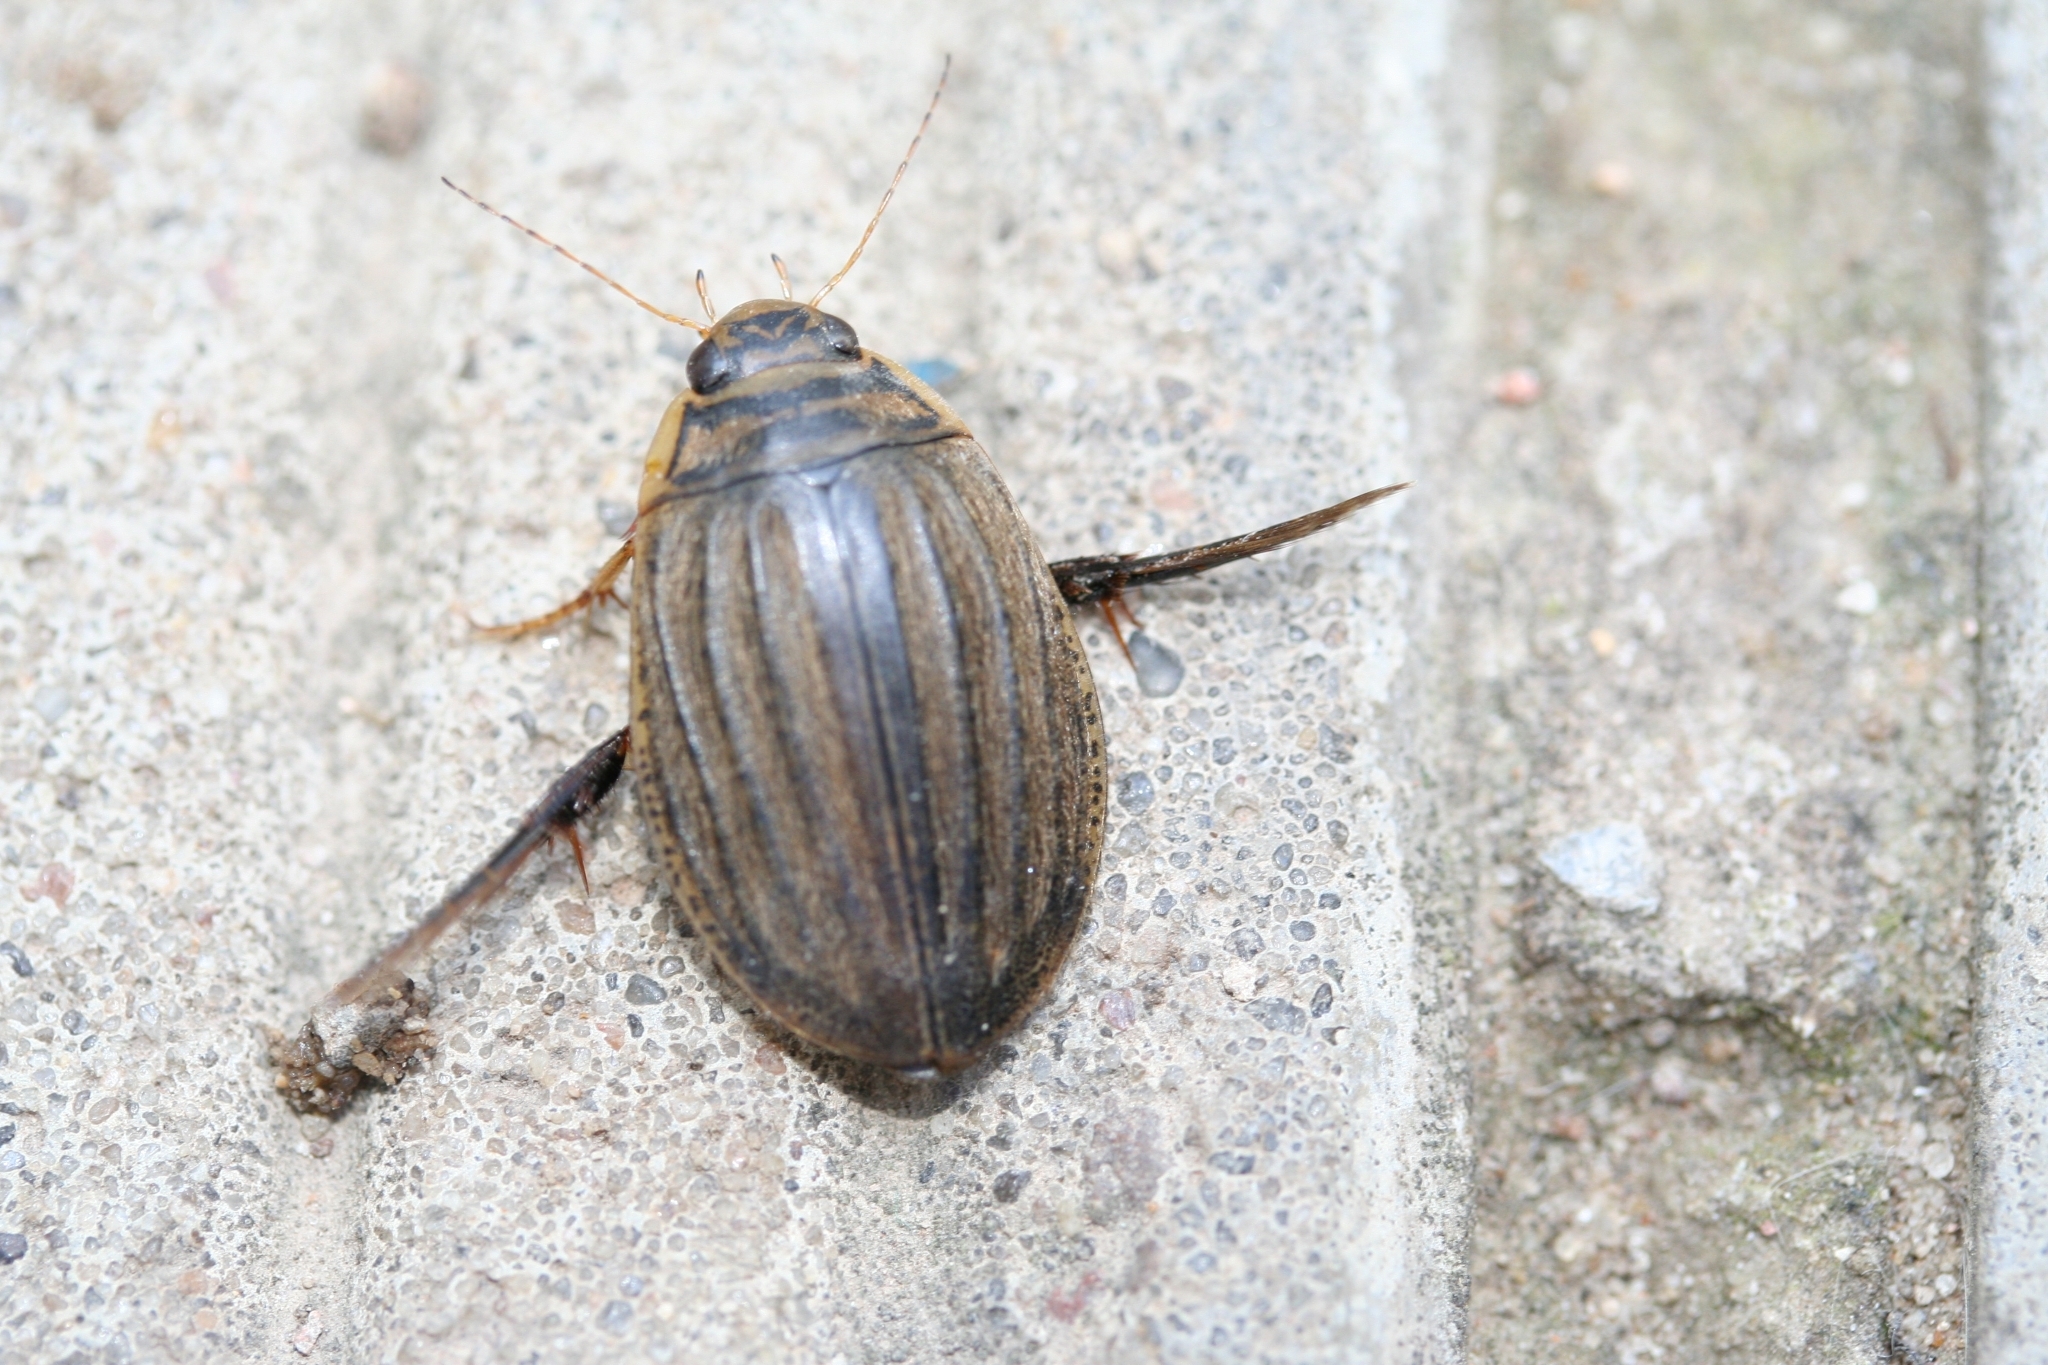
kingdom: Animalia
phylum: Arthropoda
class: Insecta
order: Coleoptera
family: Dytiscidae
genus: Acilius
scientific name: Acilius sulcatus
